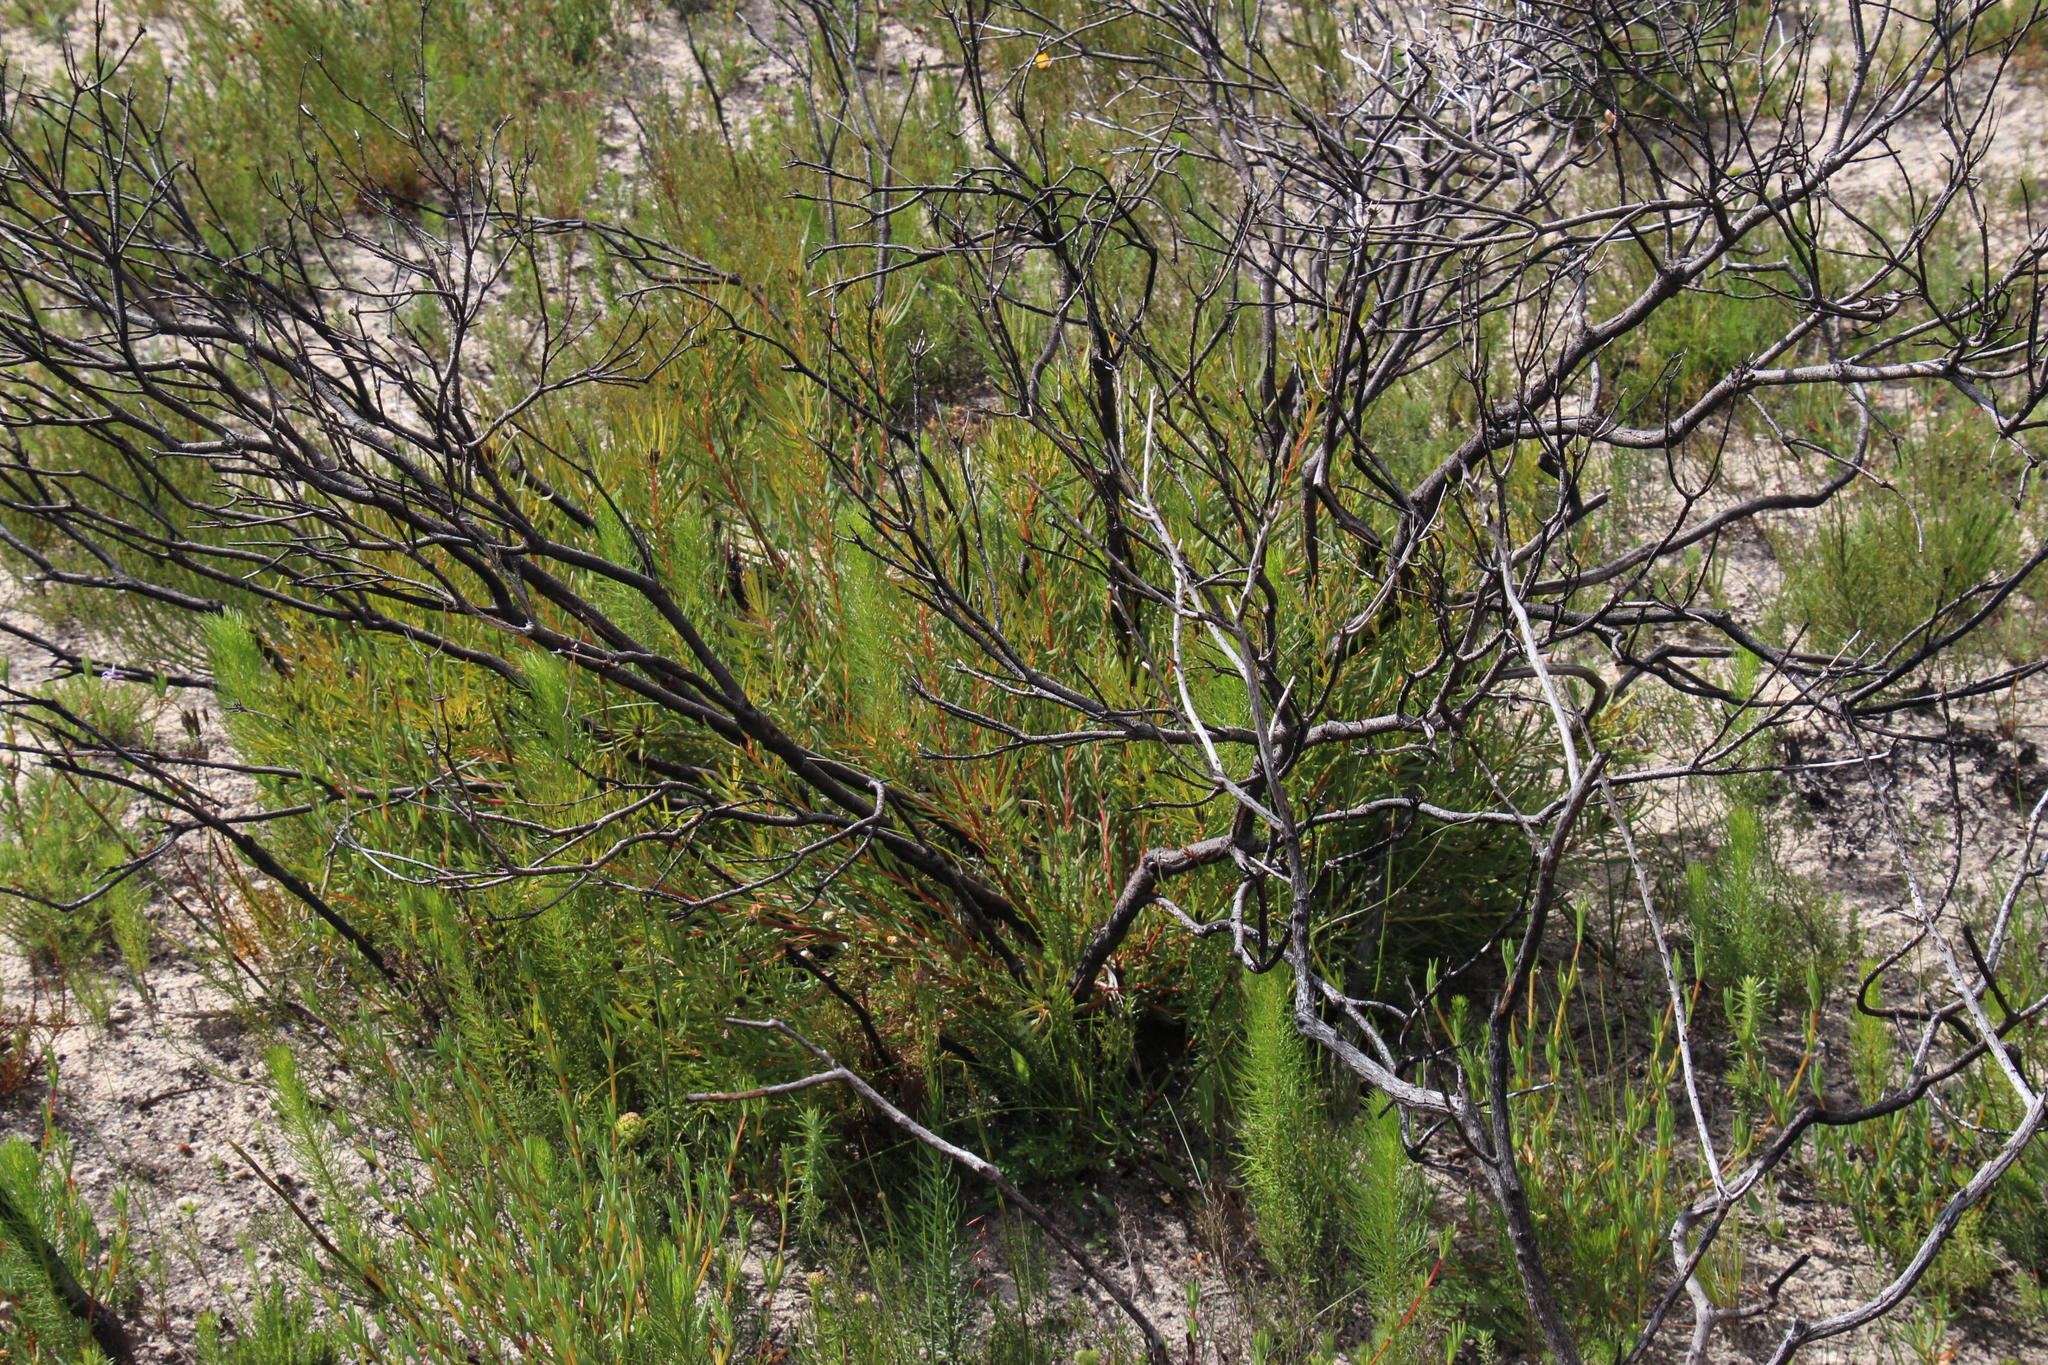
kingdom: Plantae
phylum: Tracheophyta
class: Magnoliopsida
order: Proteales
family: Proteaceae
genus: Leucadendron
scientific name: Leucadendron salignum
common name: Common sunshine conebush
